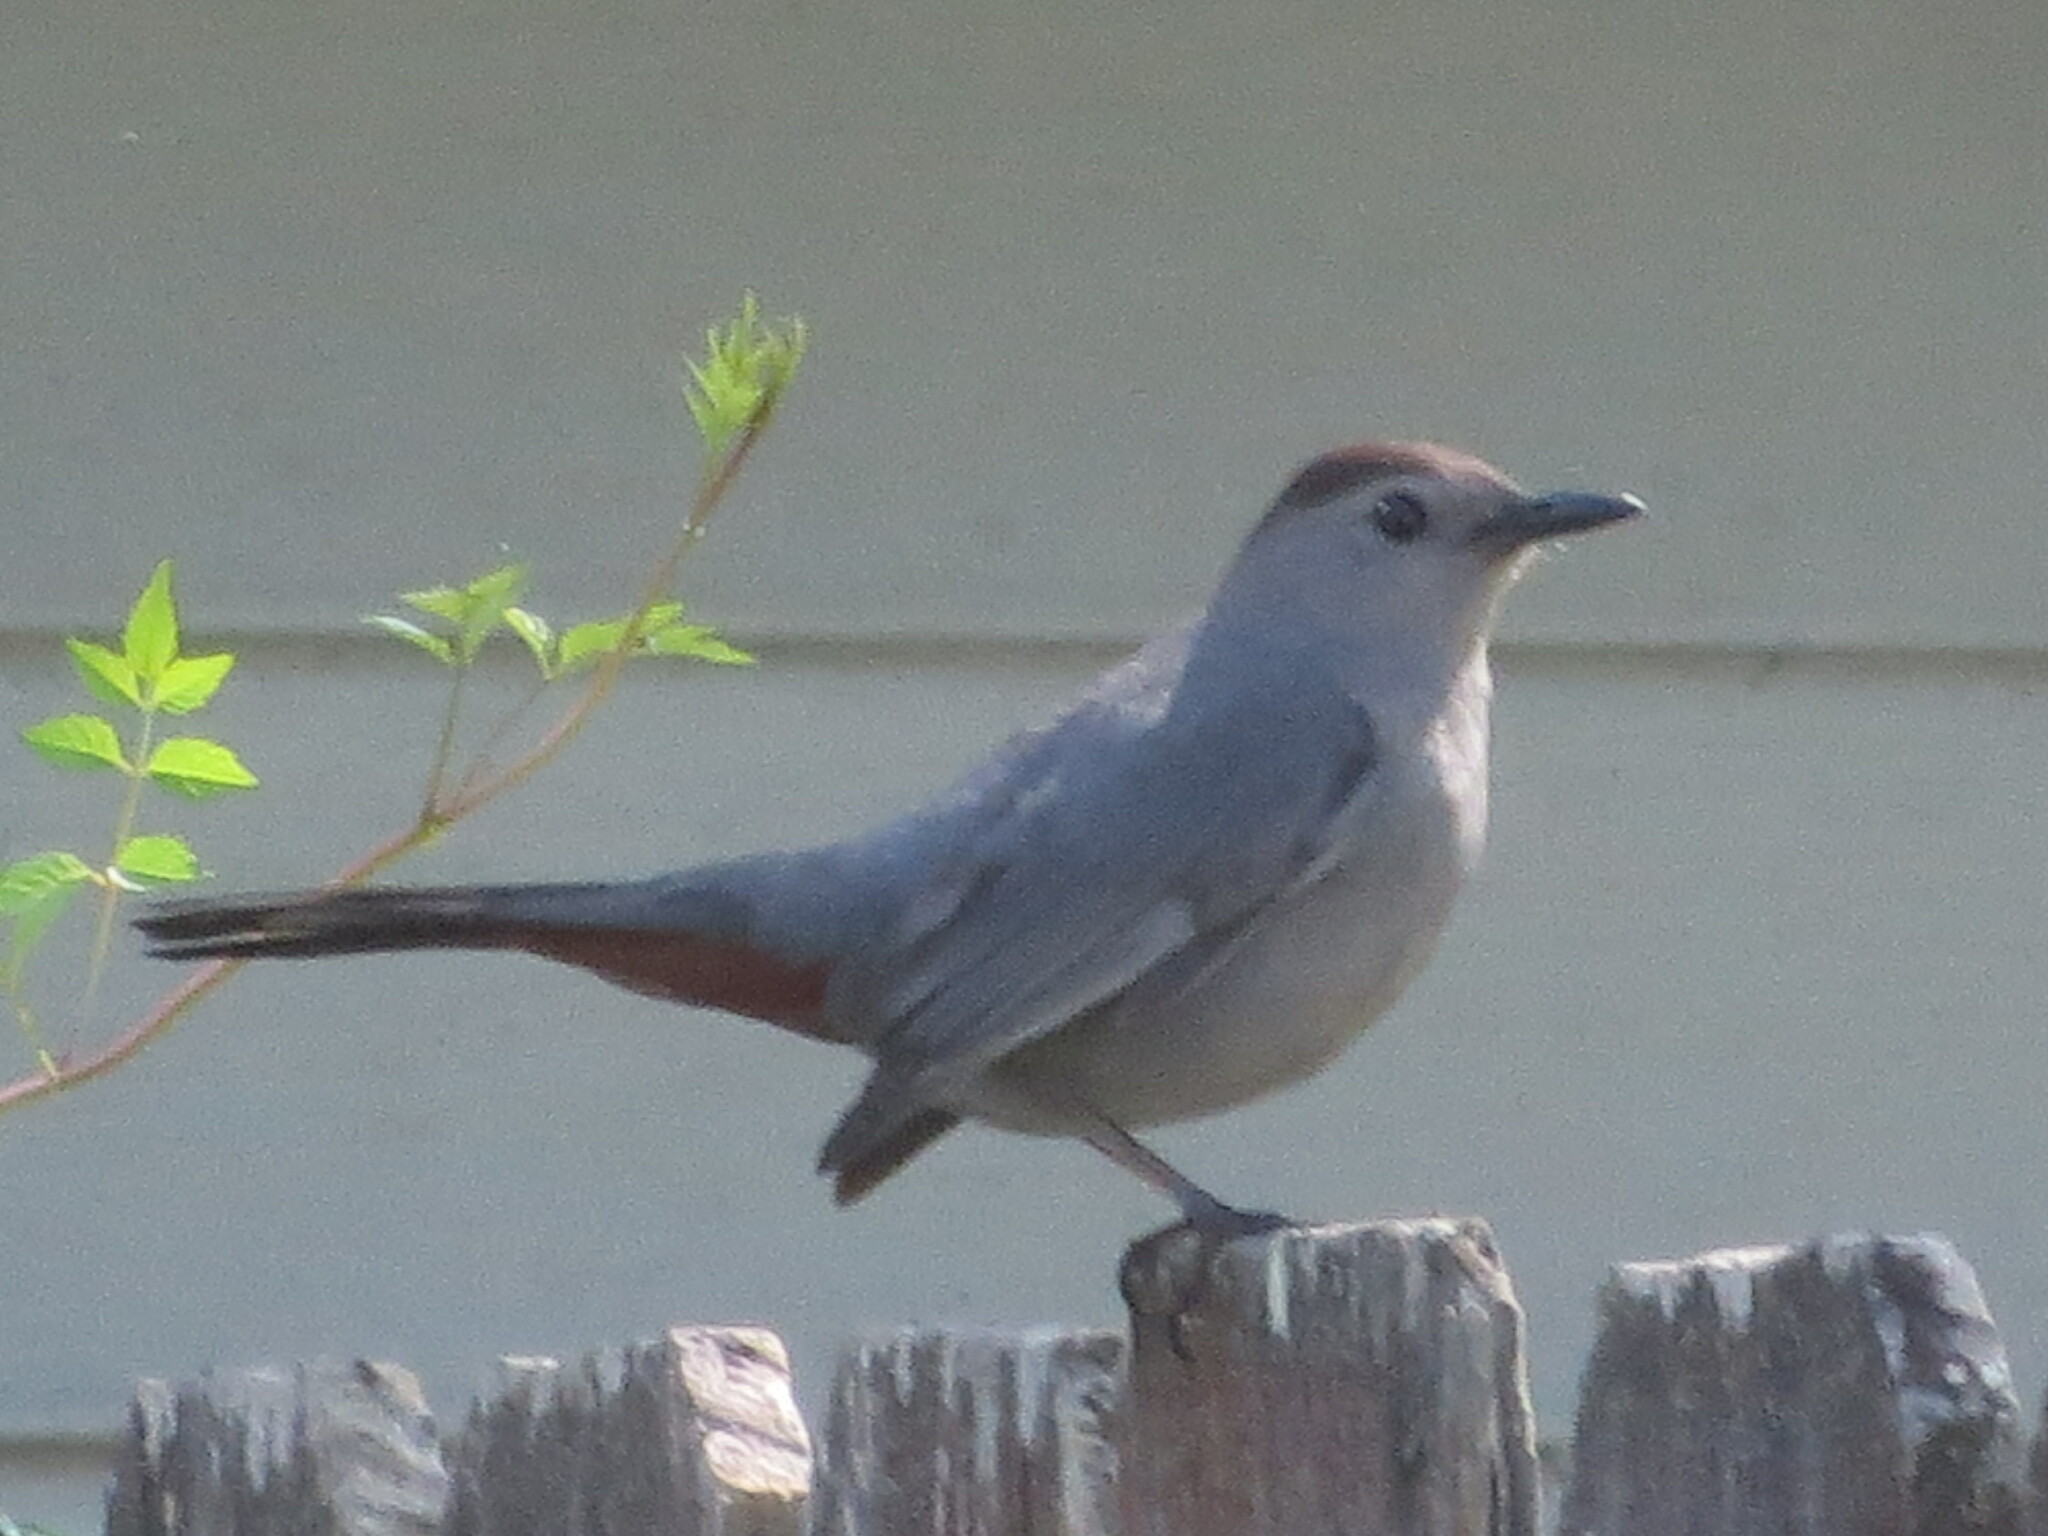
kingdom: Animalia
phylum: Chordata
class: Aves
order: Passeriformes
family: Mimidae
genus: Dumetella
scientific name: Dumetella carolinensis
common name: Gray catbird
